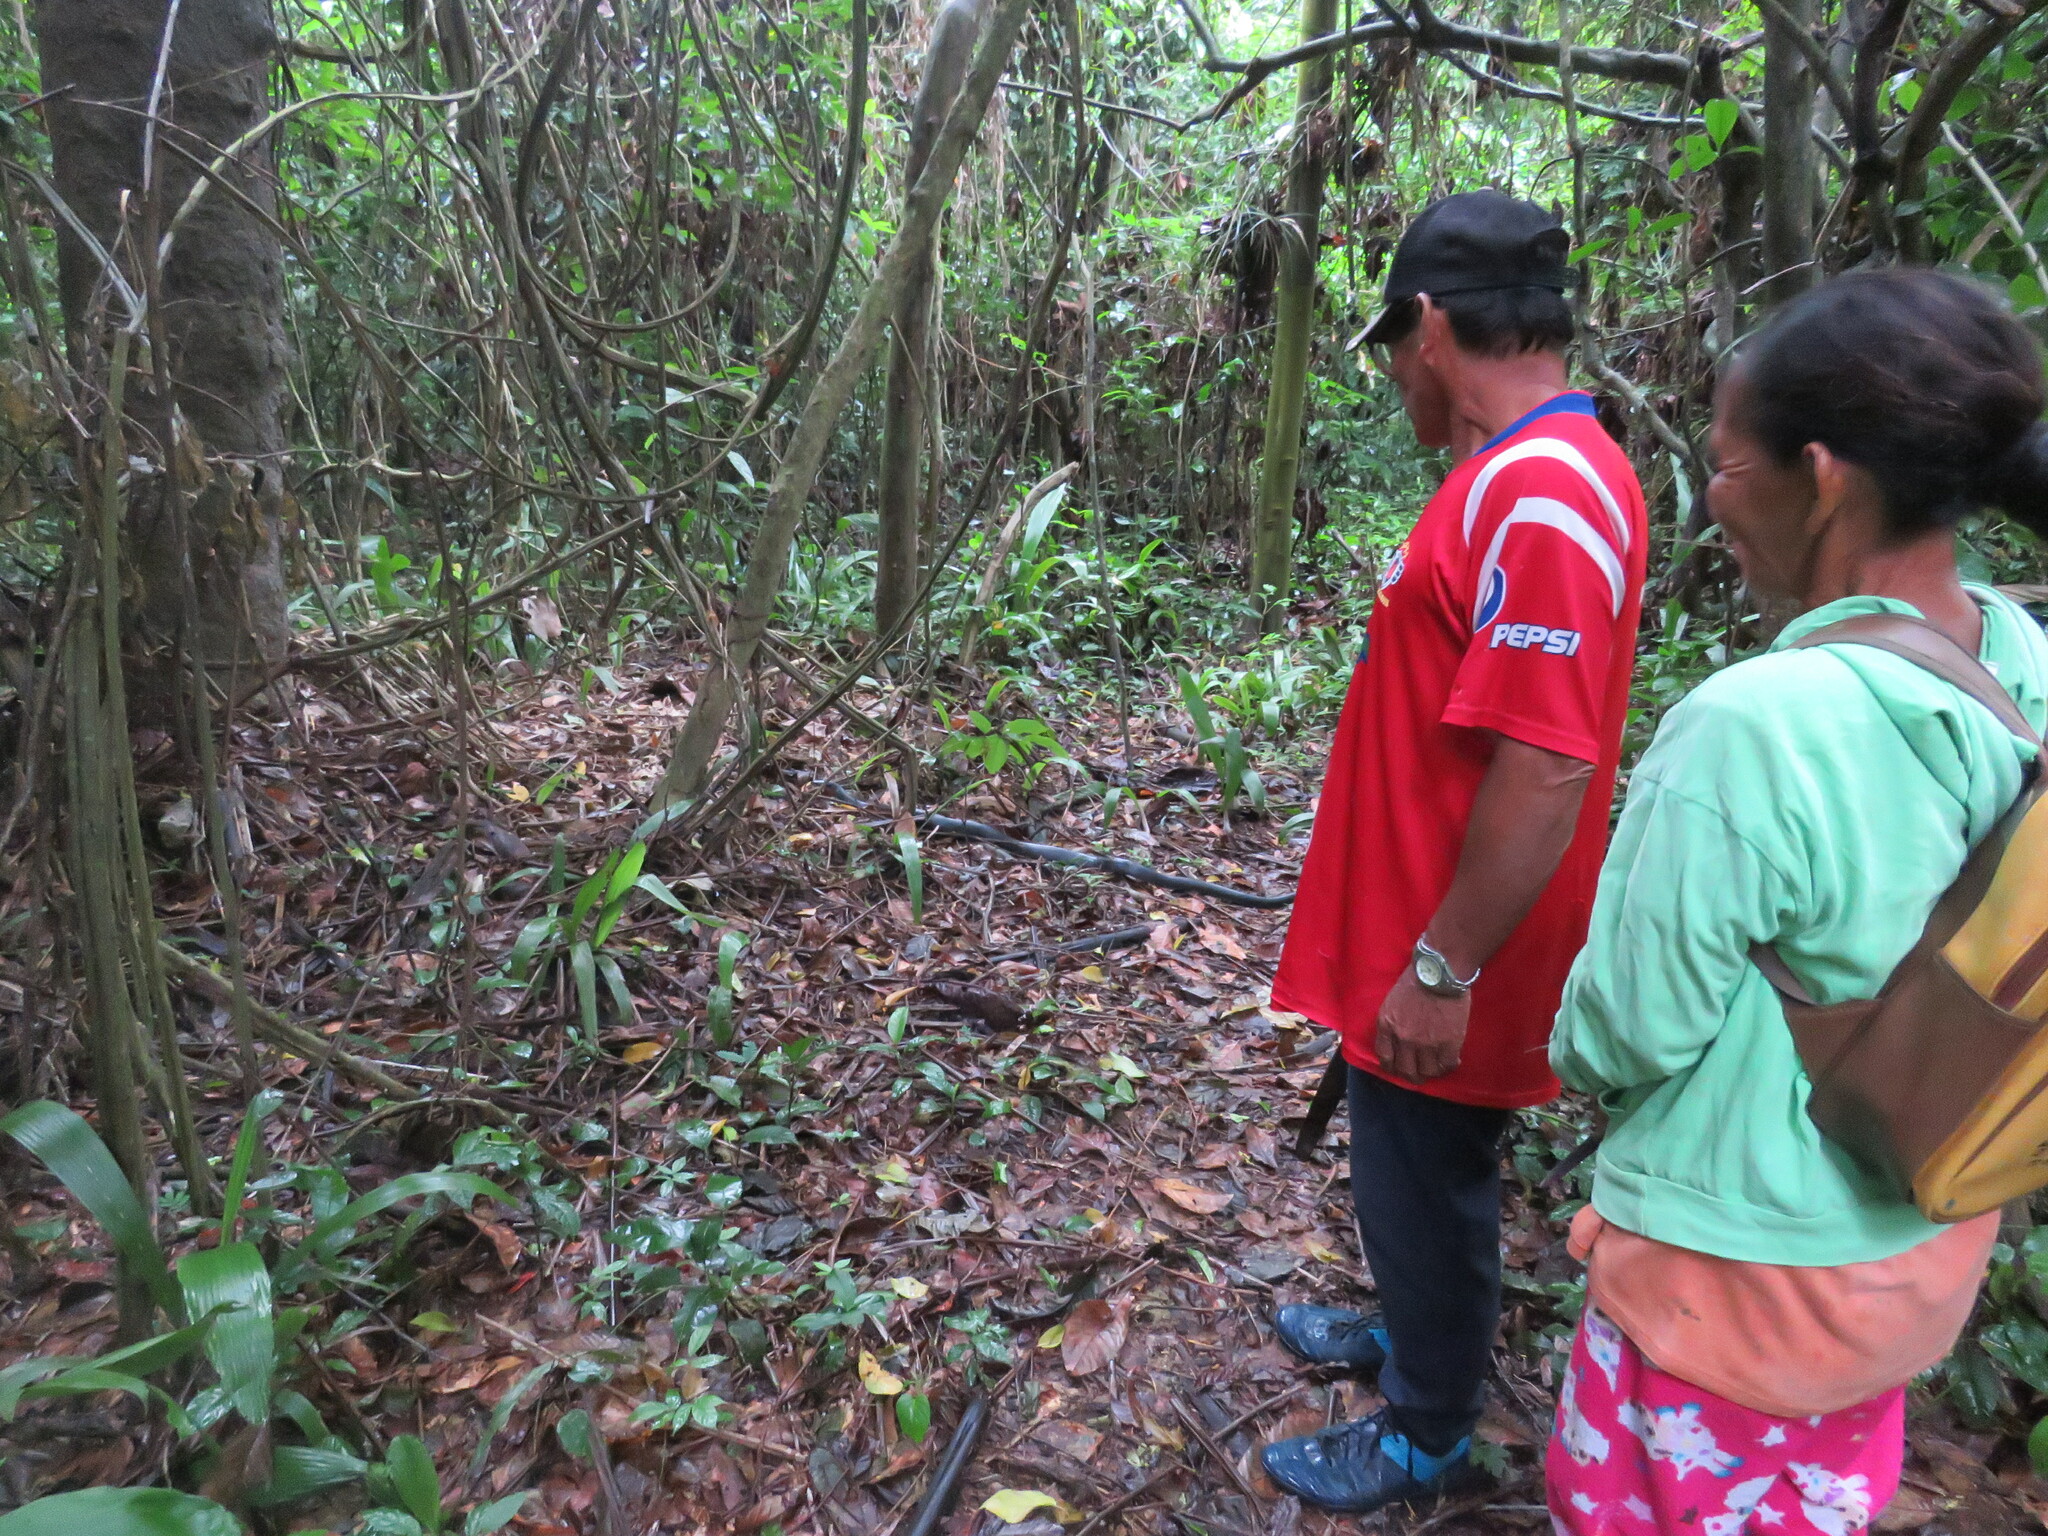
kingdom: Animalia
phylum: Chordata
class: Squamata
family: Colubridae
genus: Clelia
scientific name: Clelia clelia
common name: Mussurana
